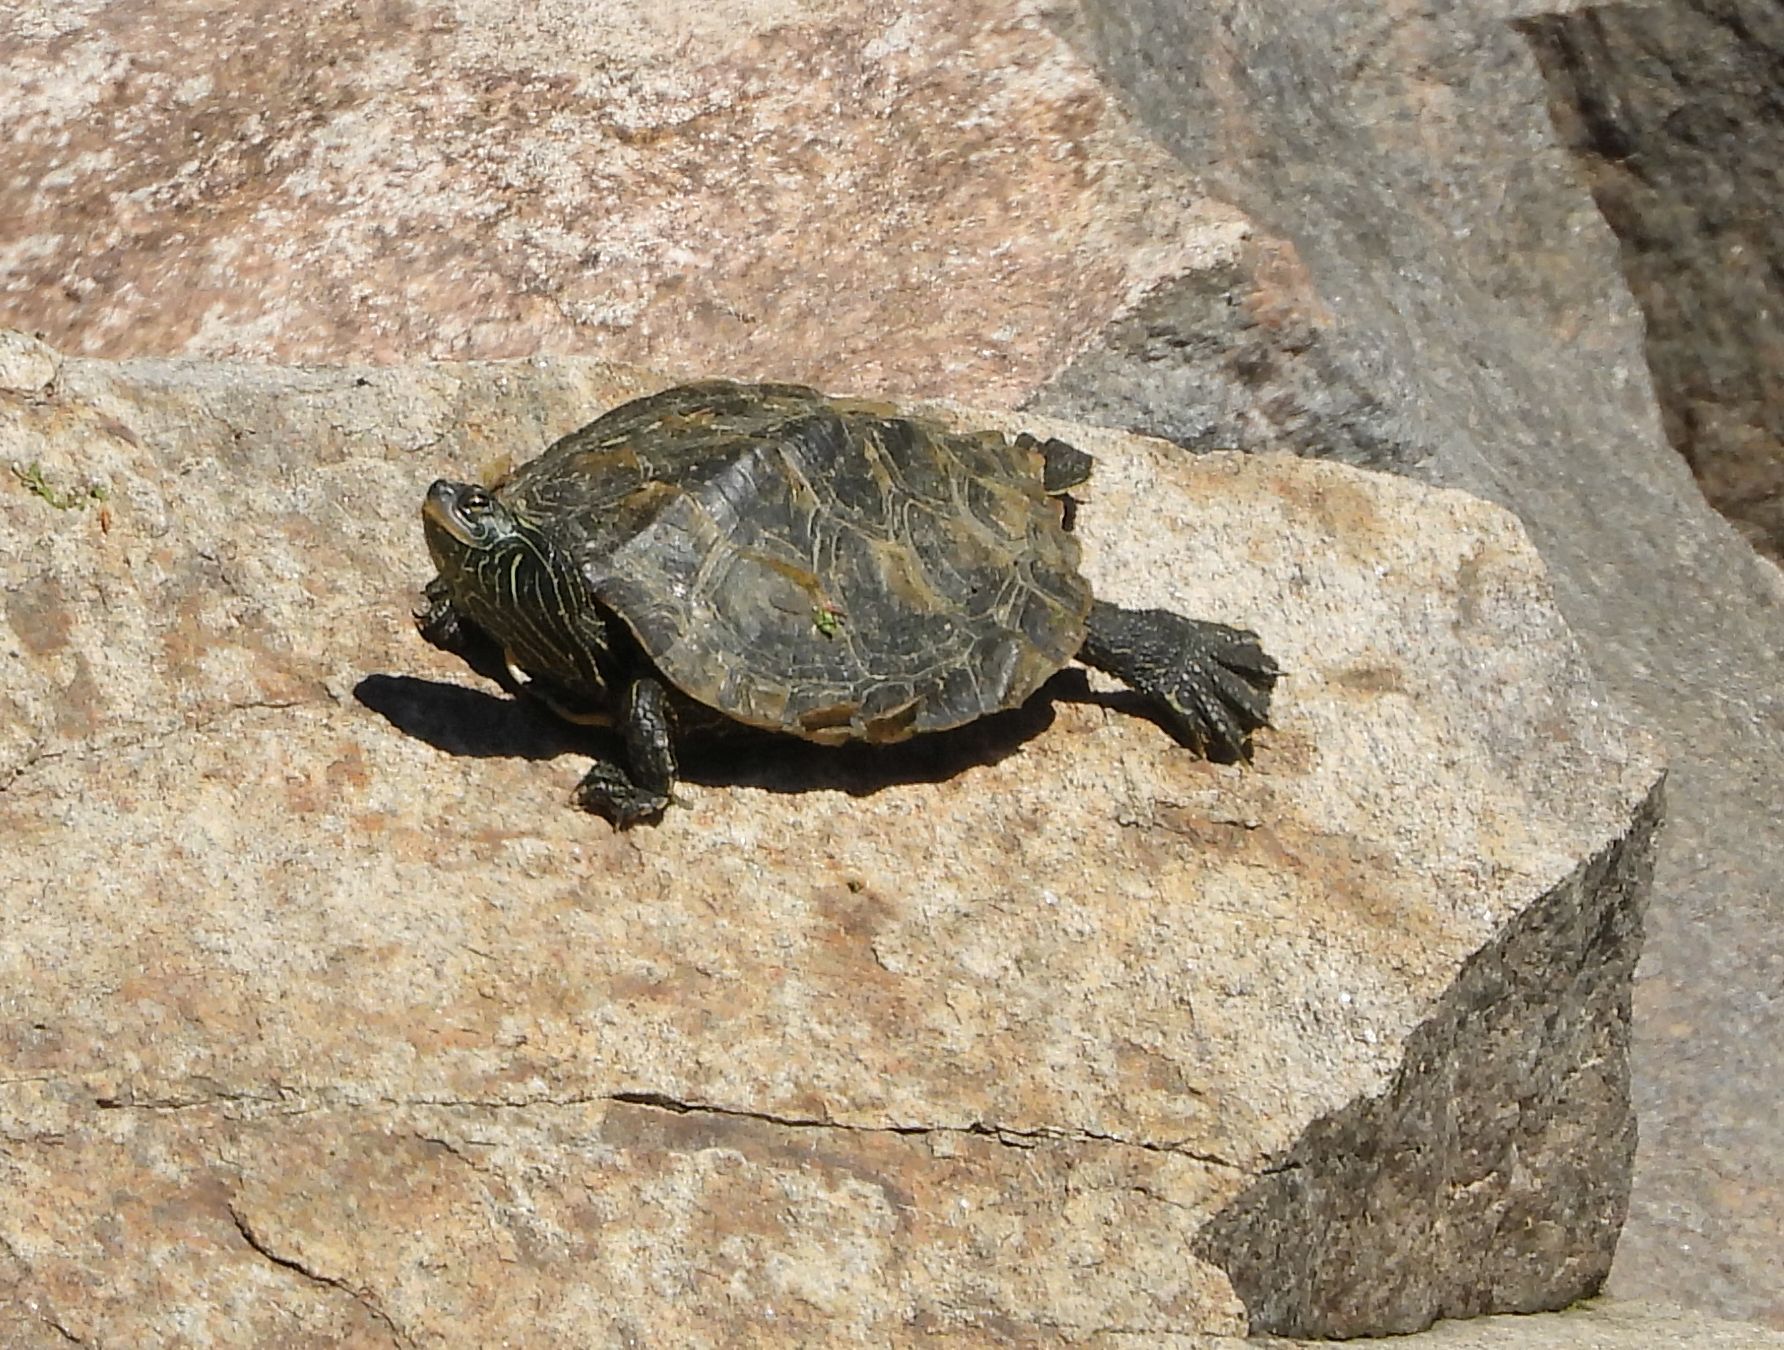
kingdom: Animalia
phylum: Chordata
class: Testudines
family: Emydidae
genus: Graptemys
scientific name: Graptemys geographica
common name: Common map turtle
